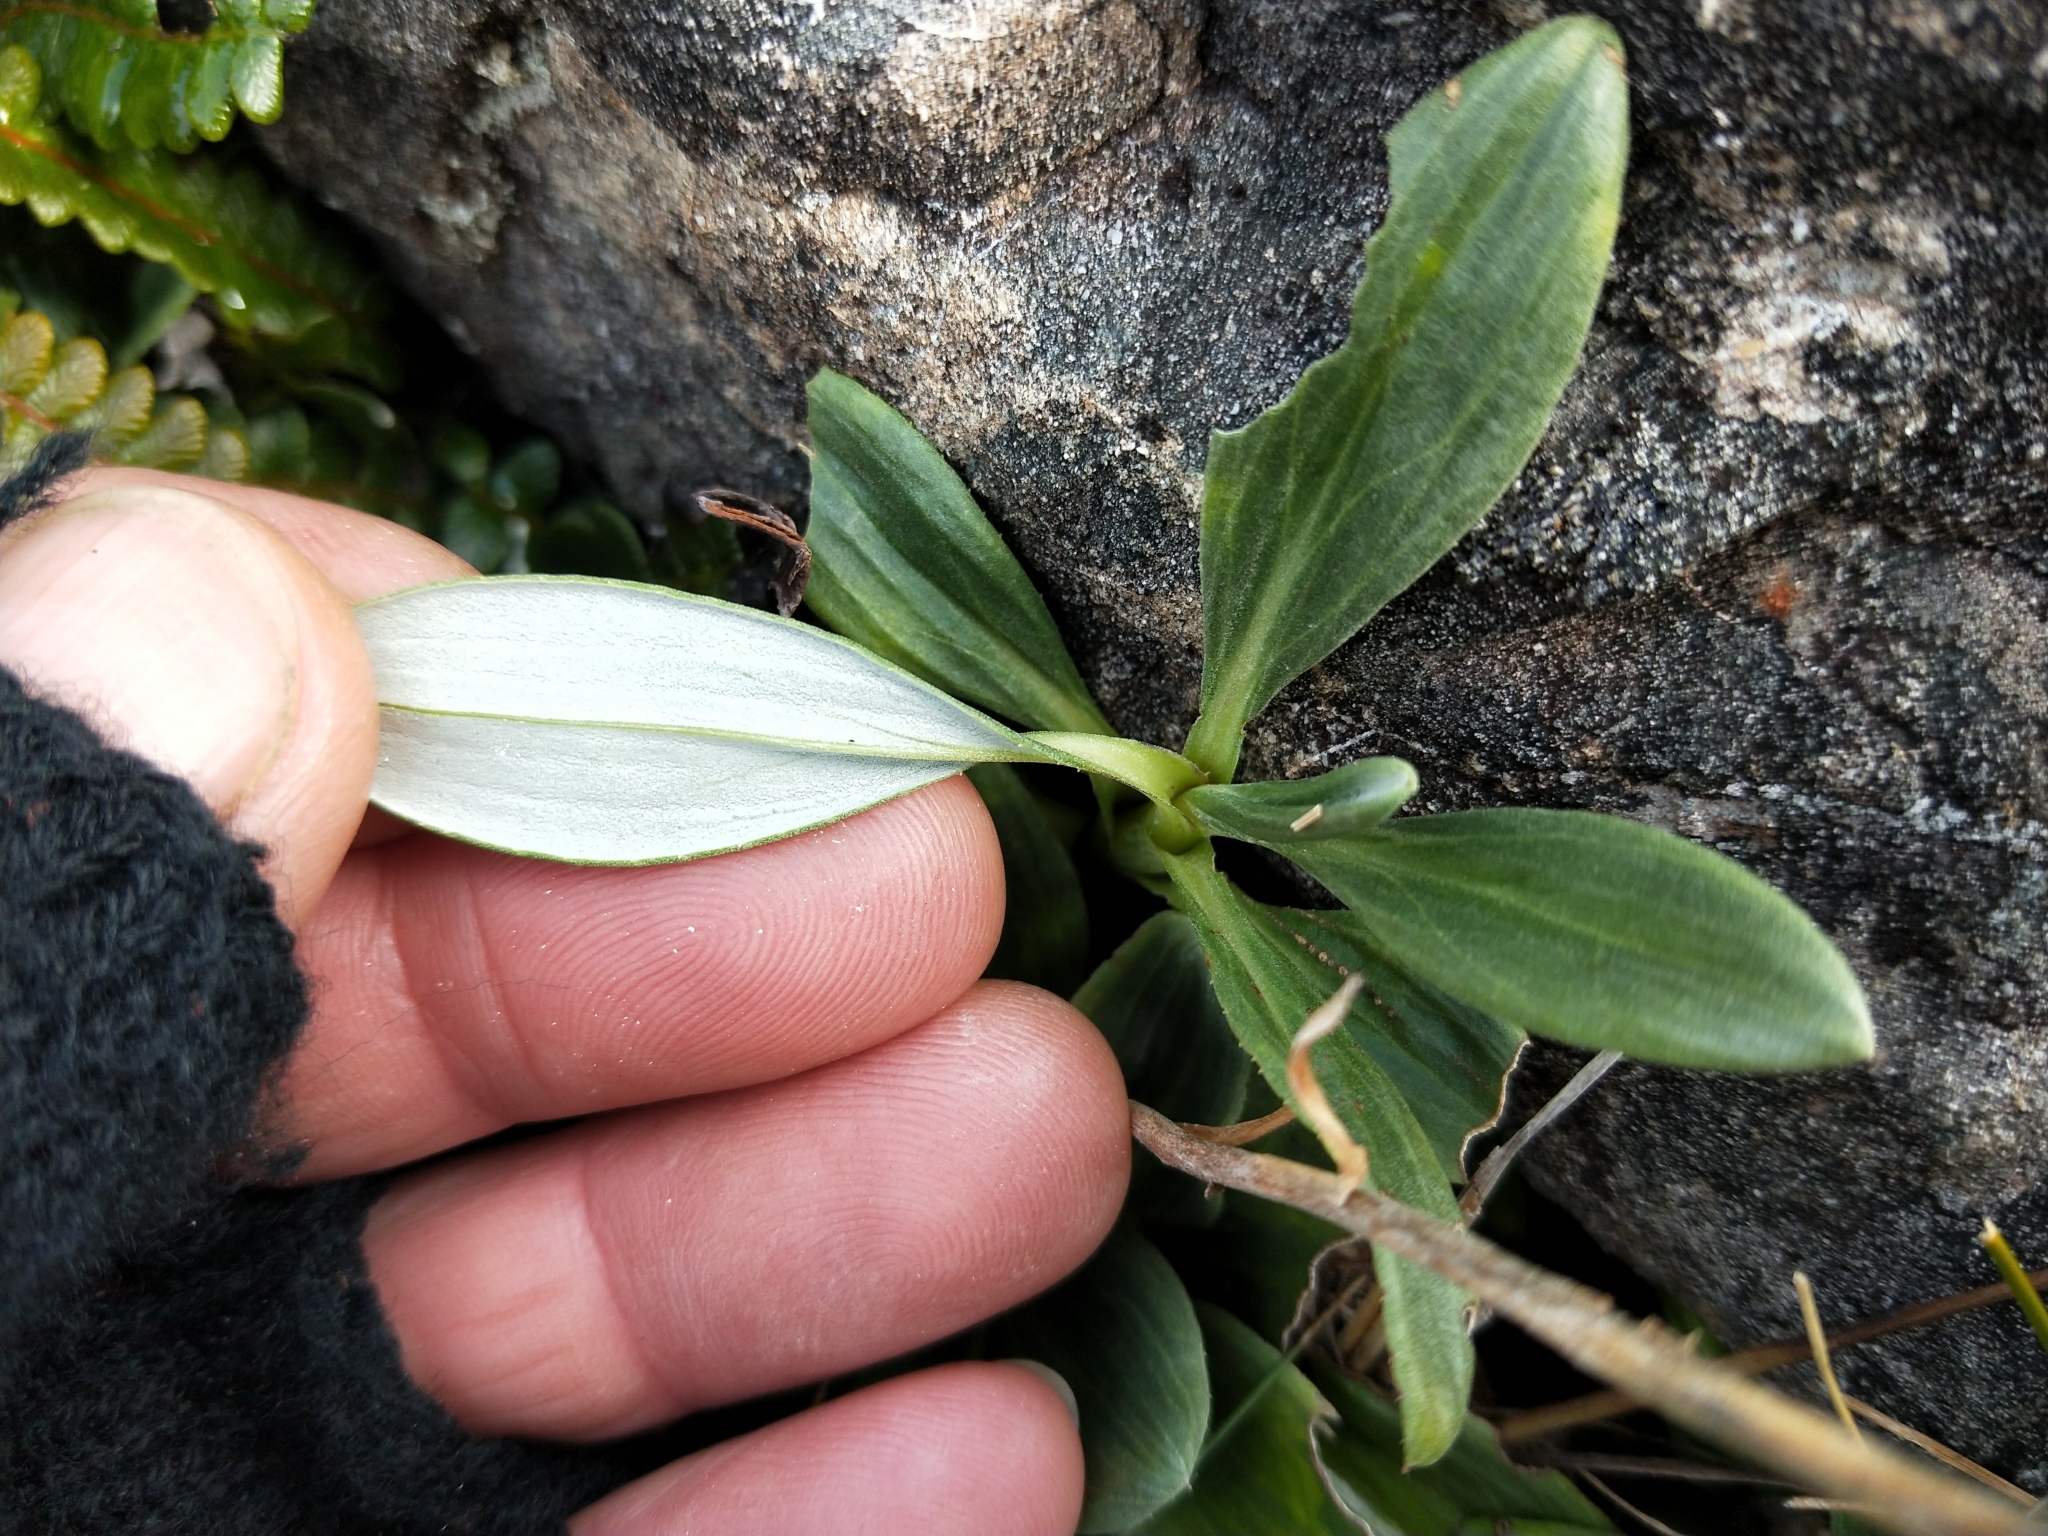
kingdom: Plantae
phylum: Tracheophyta
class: Magnoliopsida
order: Asterales
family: Asteraceae
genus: Celmisia
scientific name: Celmisia haastii
